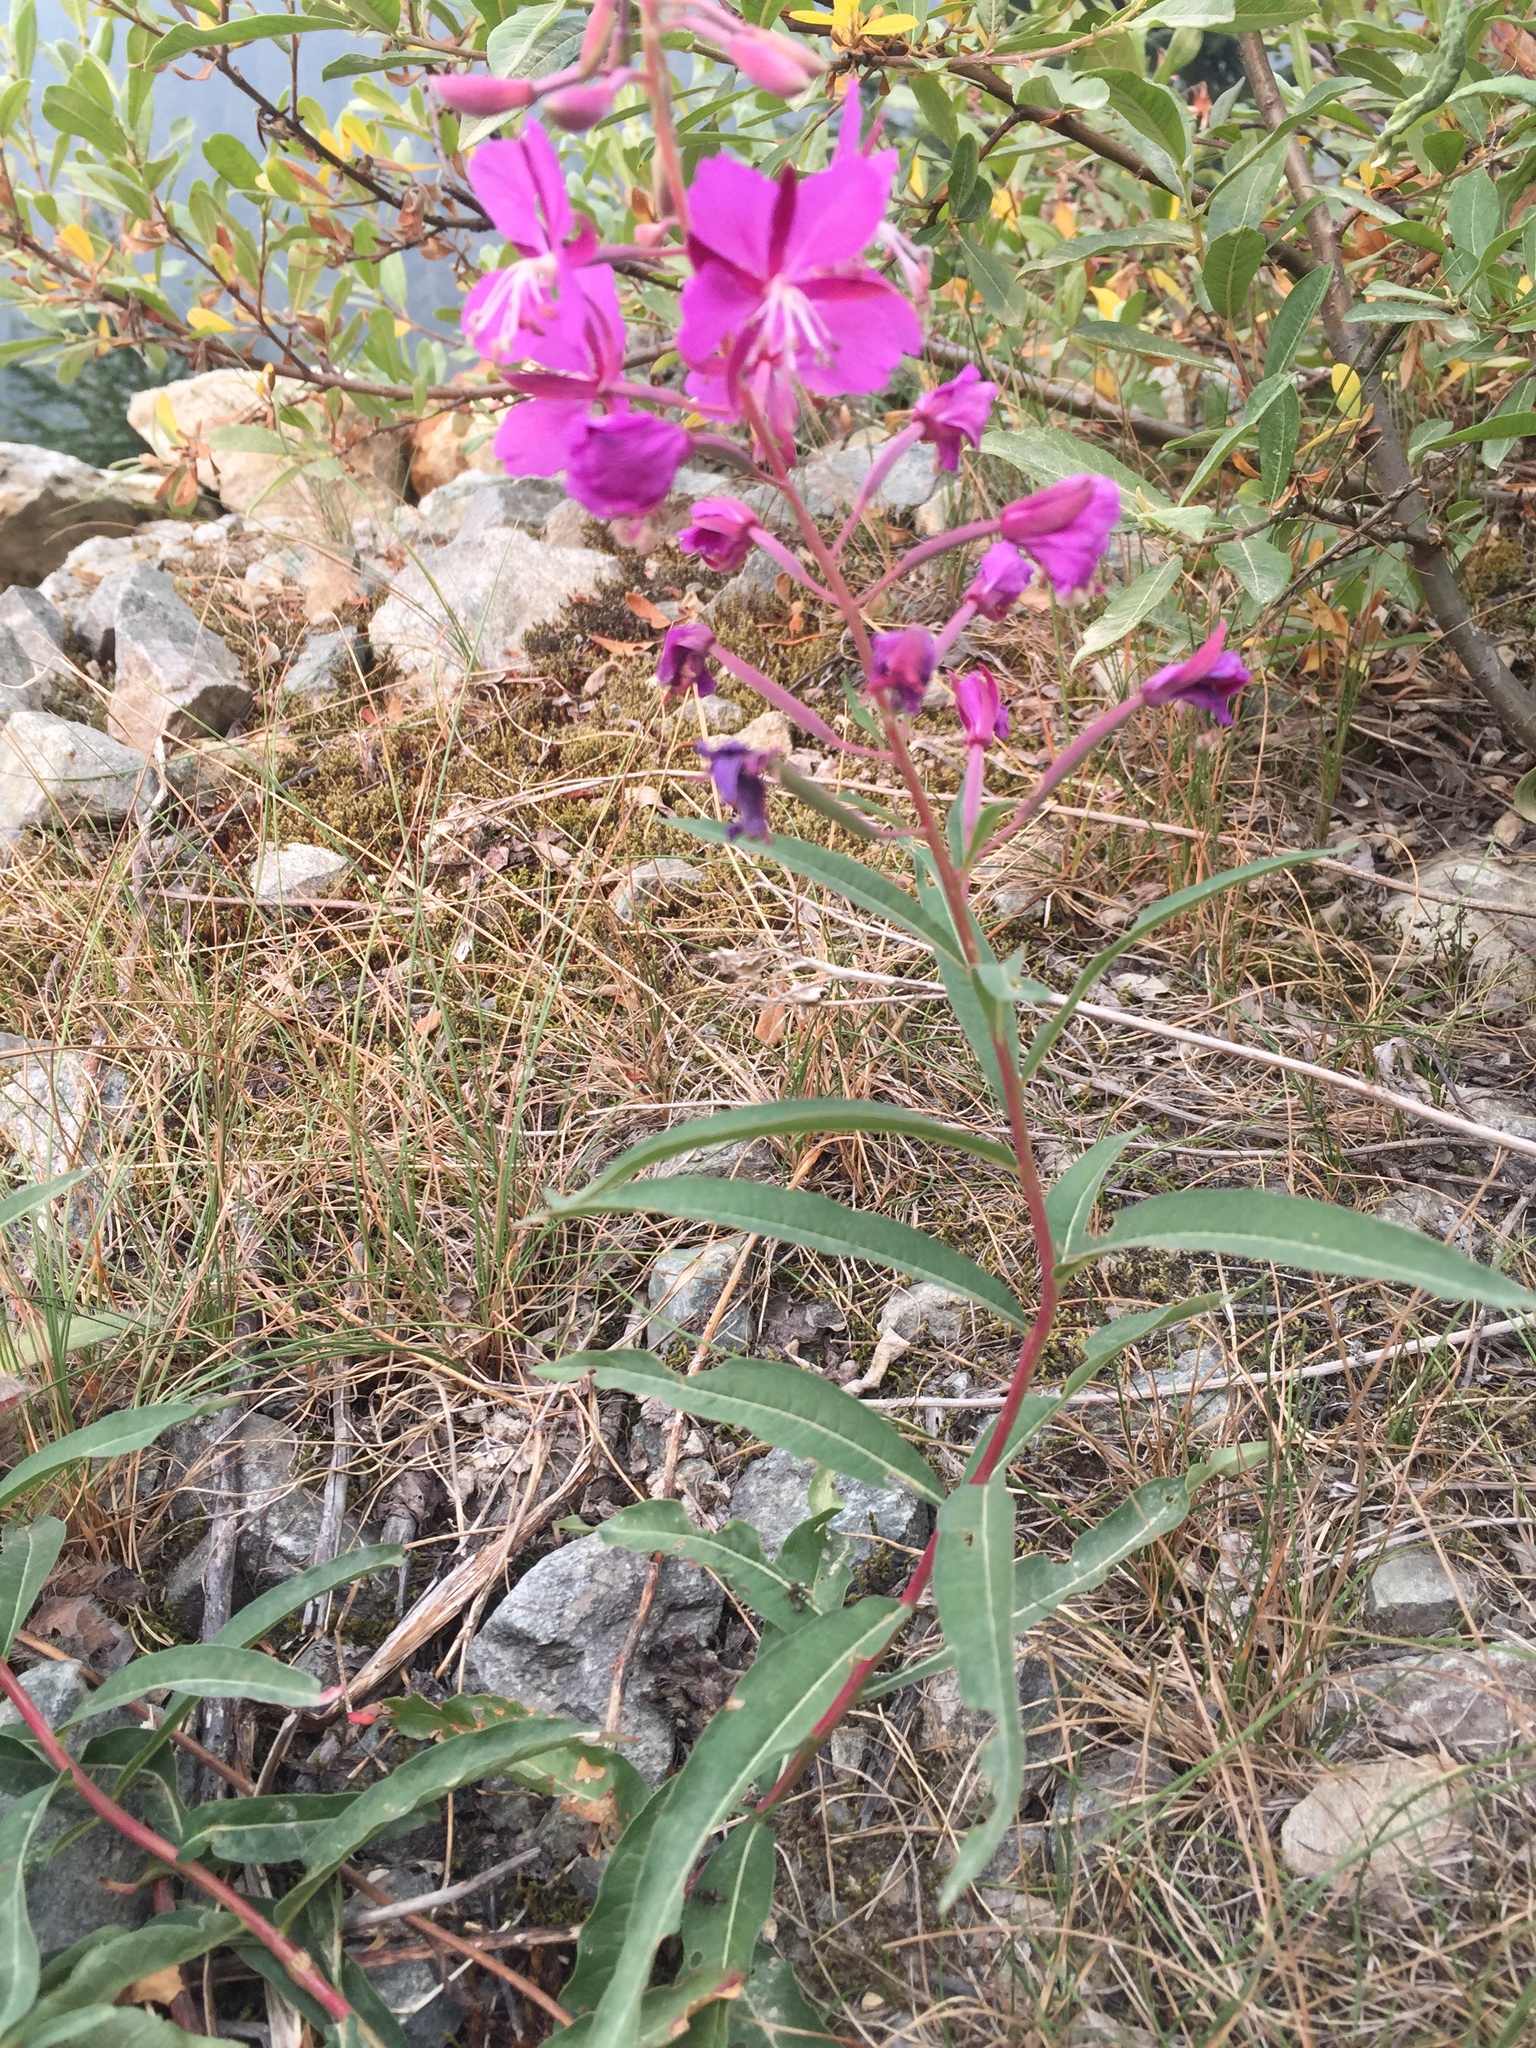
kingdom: Plantae
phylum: Tracheophyta
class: Magnoliopsida
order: Myrtales
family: Onagraceae
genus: Chamaenerion
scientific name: Chamaenerion angustifolium
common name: Fireweed
